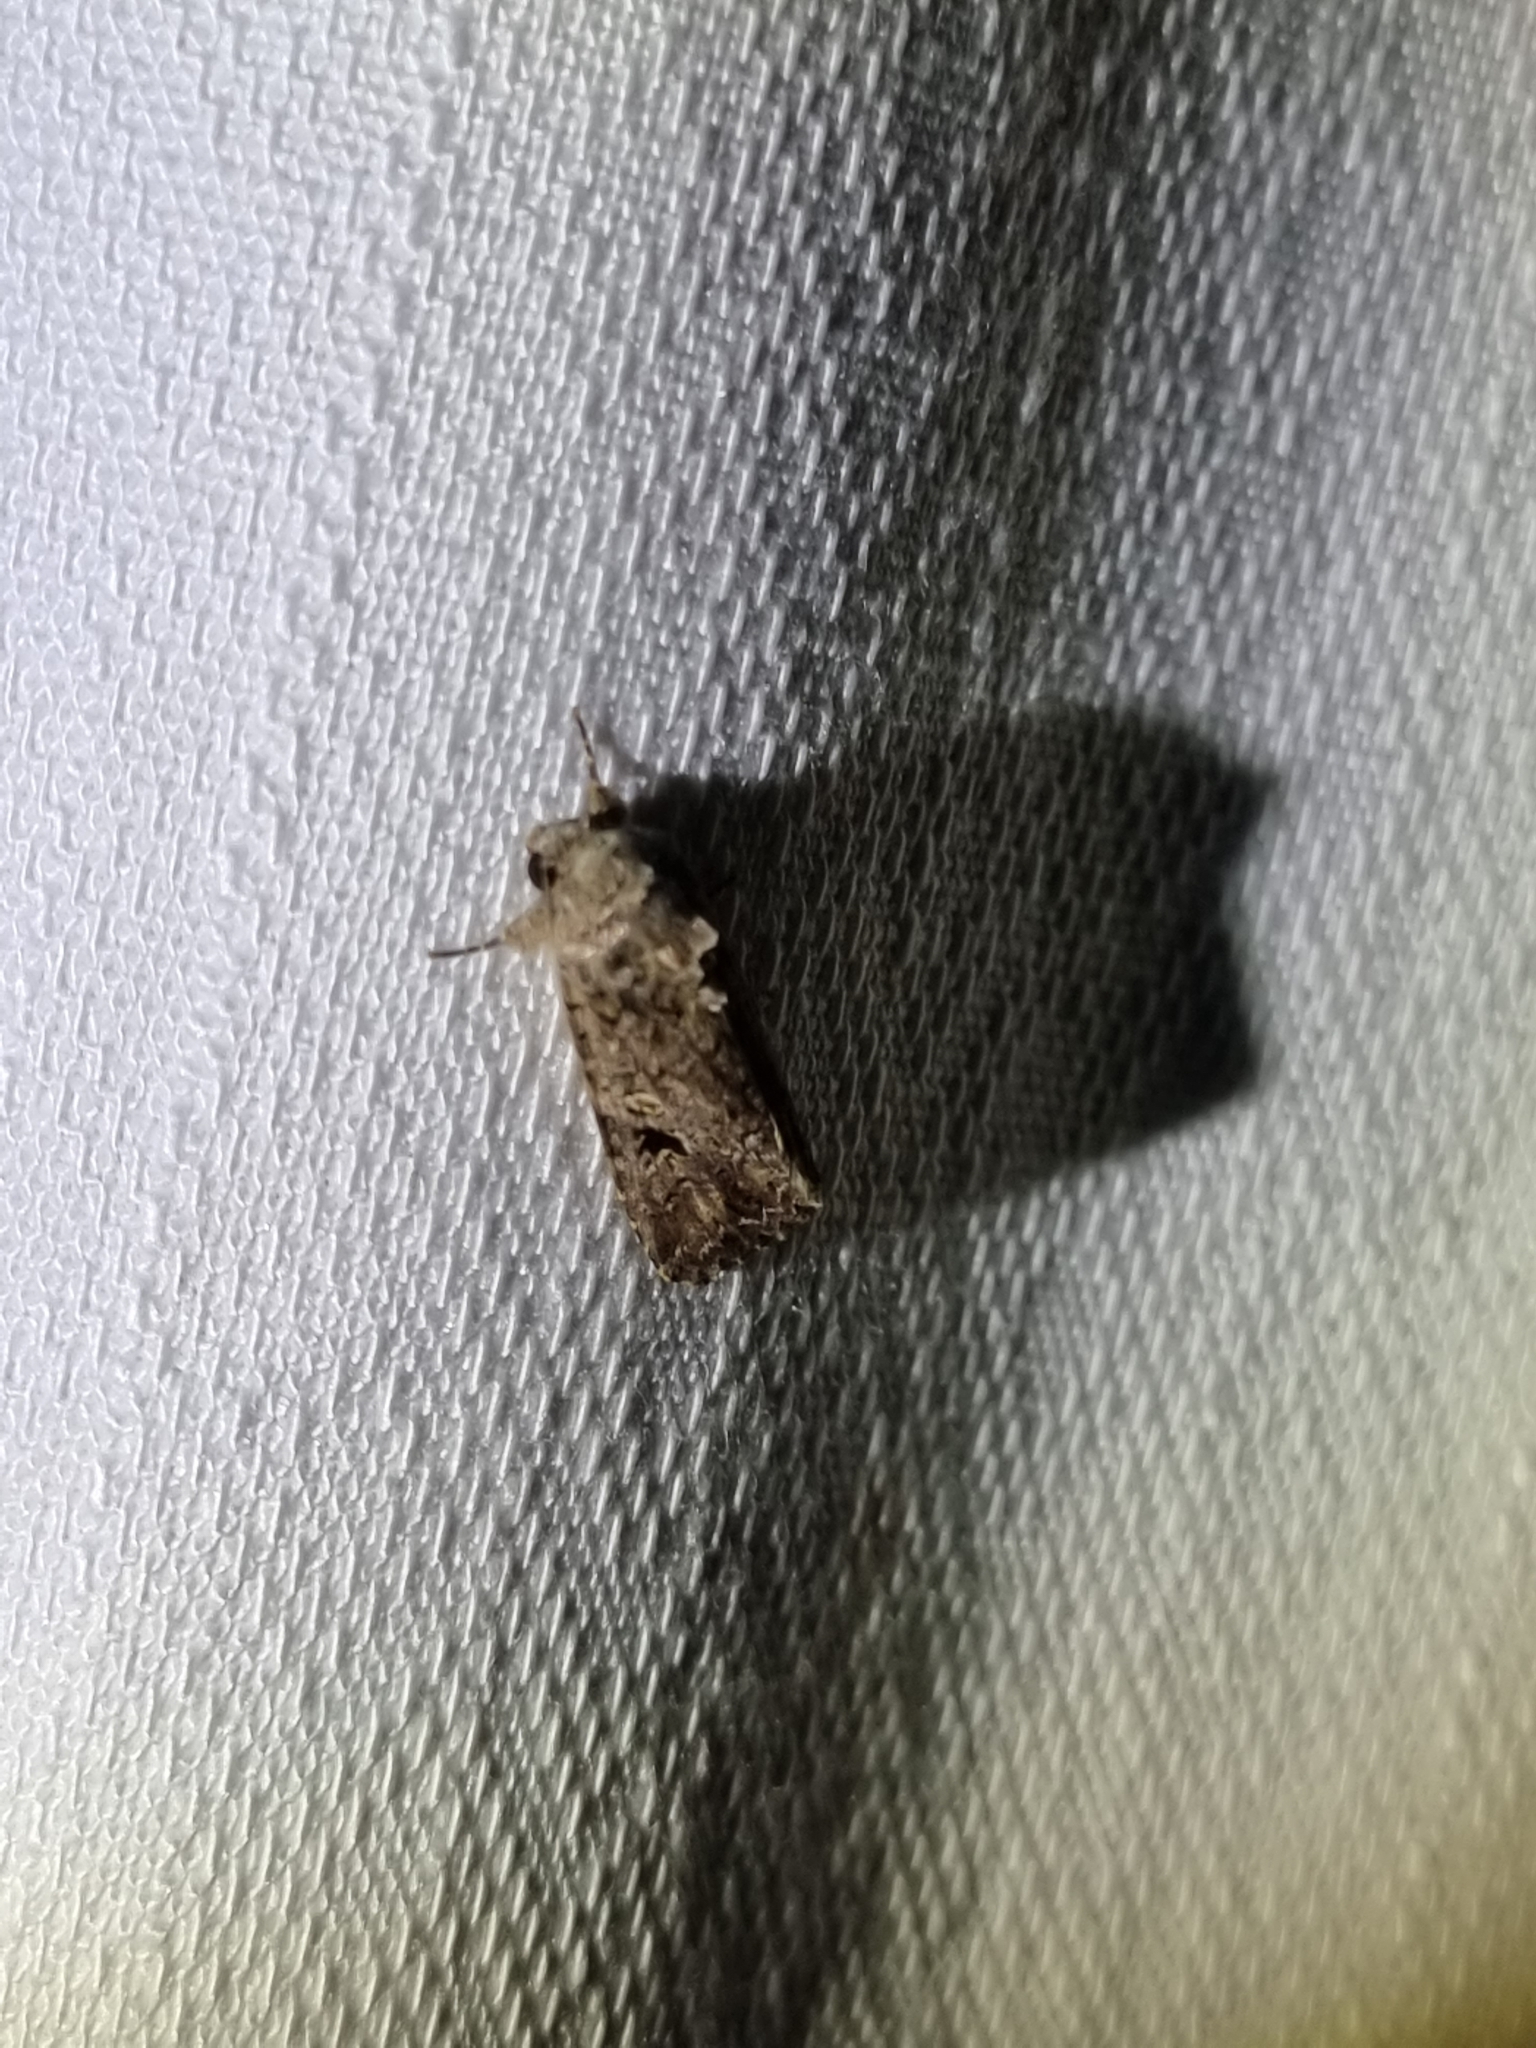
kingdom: Animalia
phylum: Arthropoda
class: Insecta
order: Lepidoptera
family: Noctuidae
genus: Spodoptera
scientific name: Spodoptera mauritia
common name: Lawn armyworm
